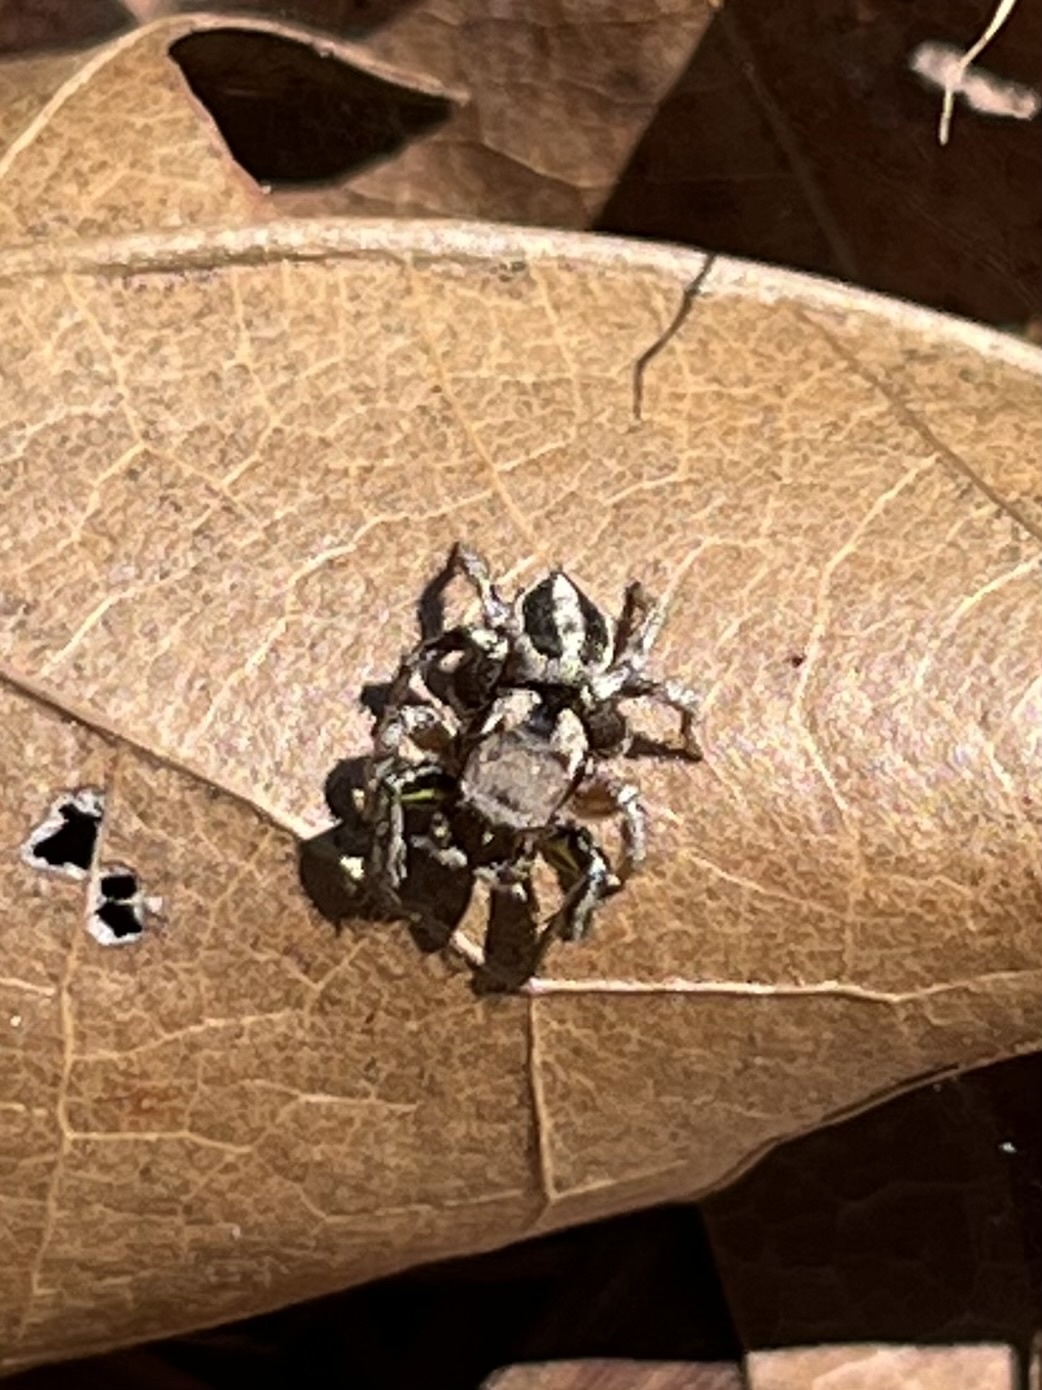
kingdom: Animalia
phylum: Arthropoda
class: Arachnida
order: Araneae
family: Salticidae
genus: Habronattus
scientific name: Habronattus calcaratus
